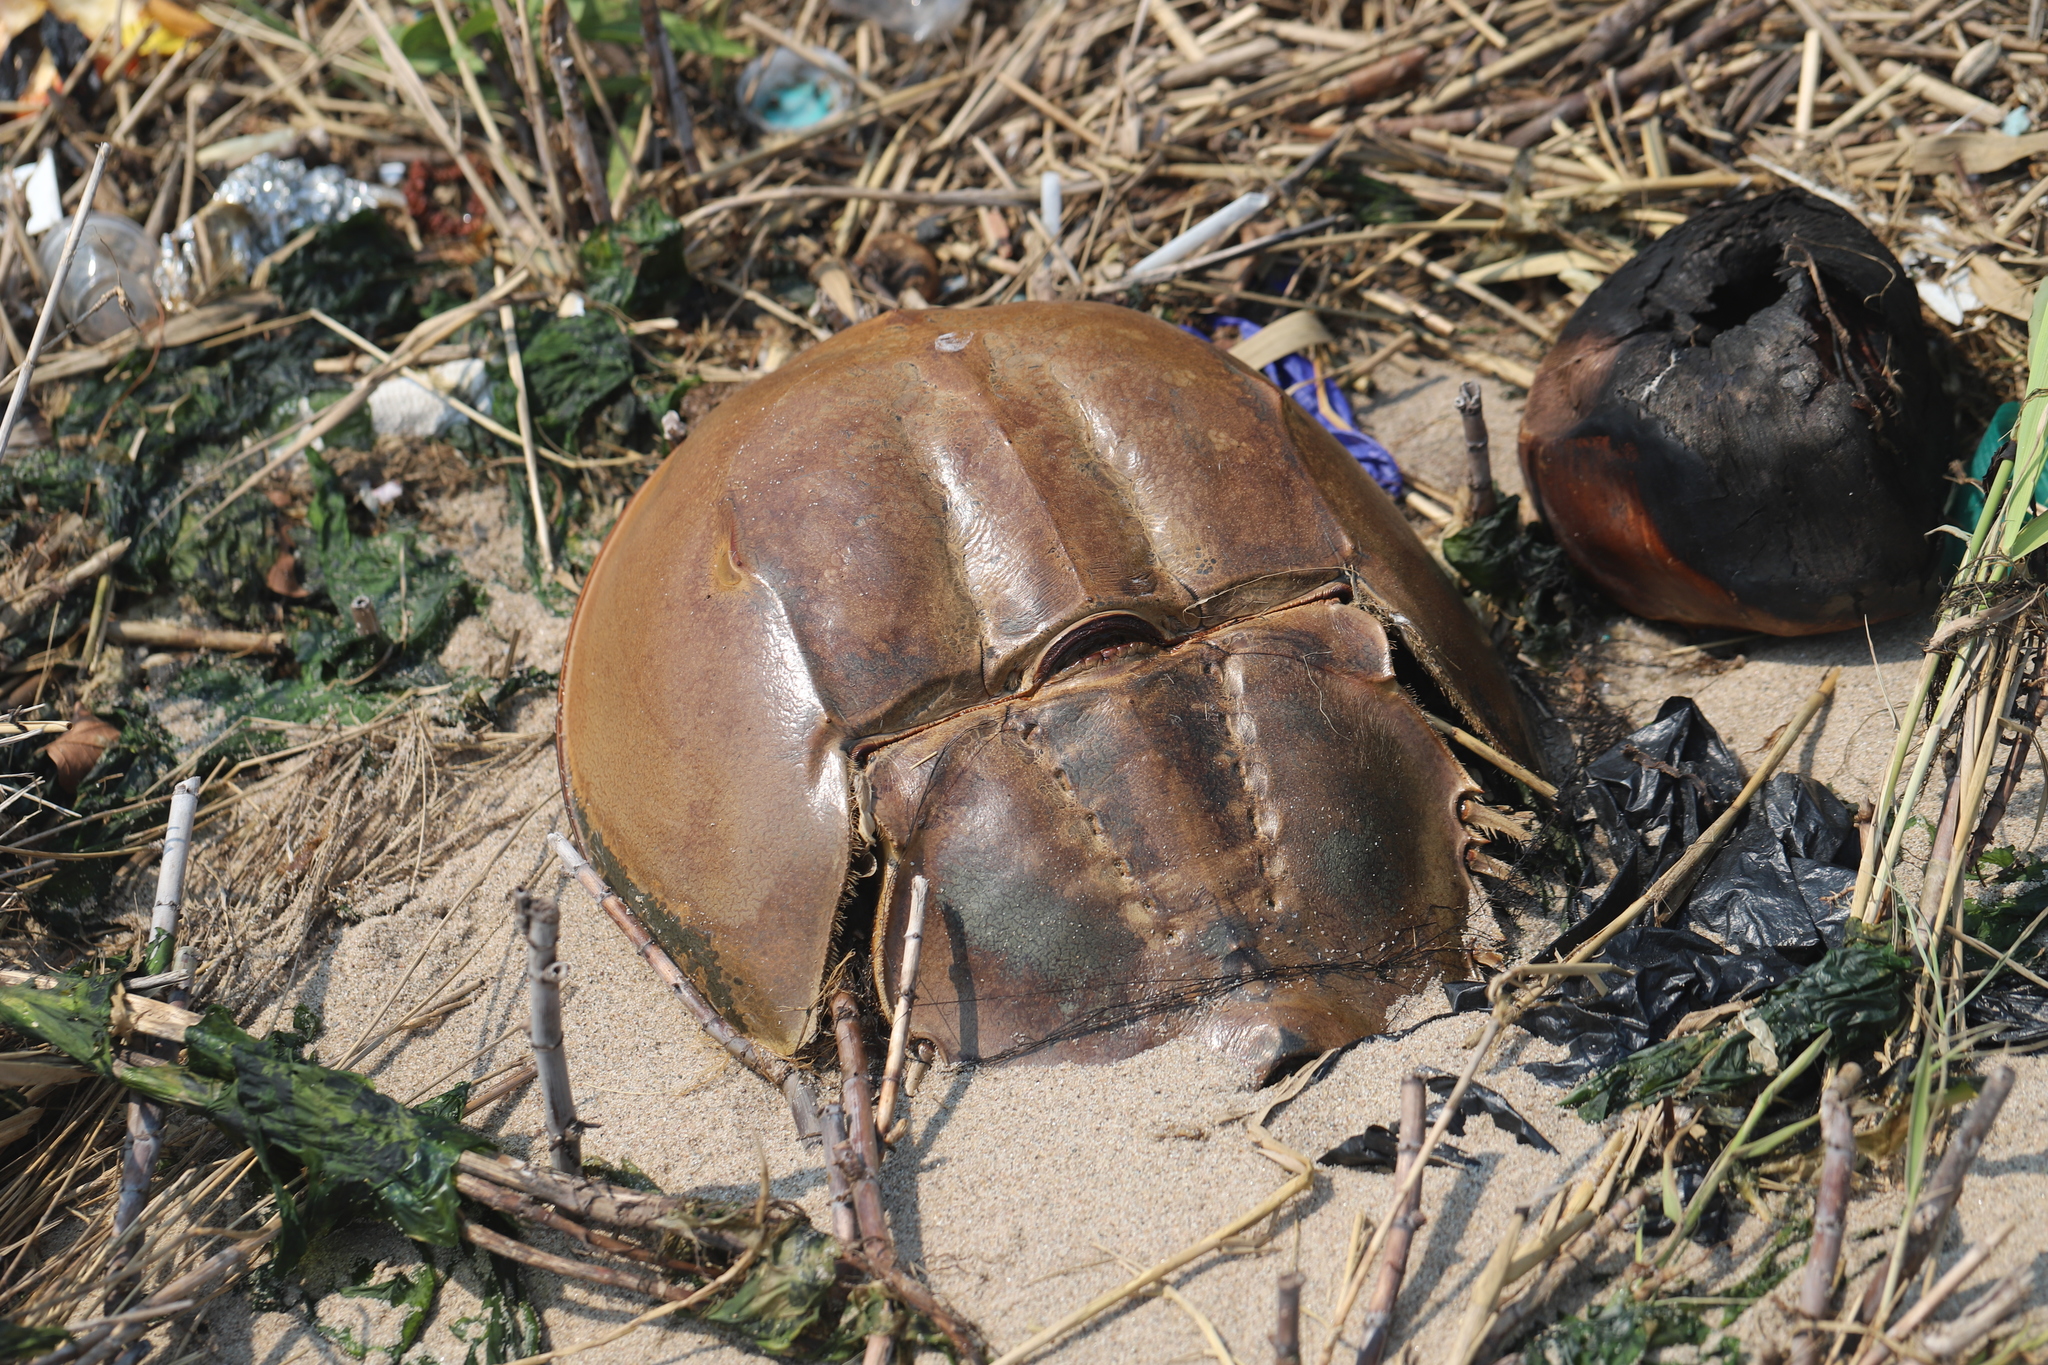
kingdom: Animalia
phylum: Arthropoda
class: Merostomata
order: Xiphosurida
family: Limulidae
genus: Limulus
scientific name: Limulus polyphemus
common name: Horseshoe crab
